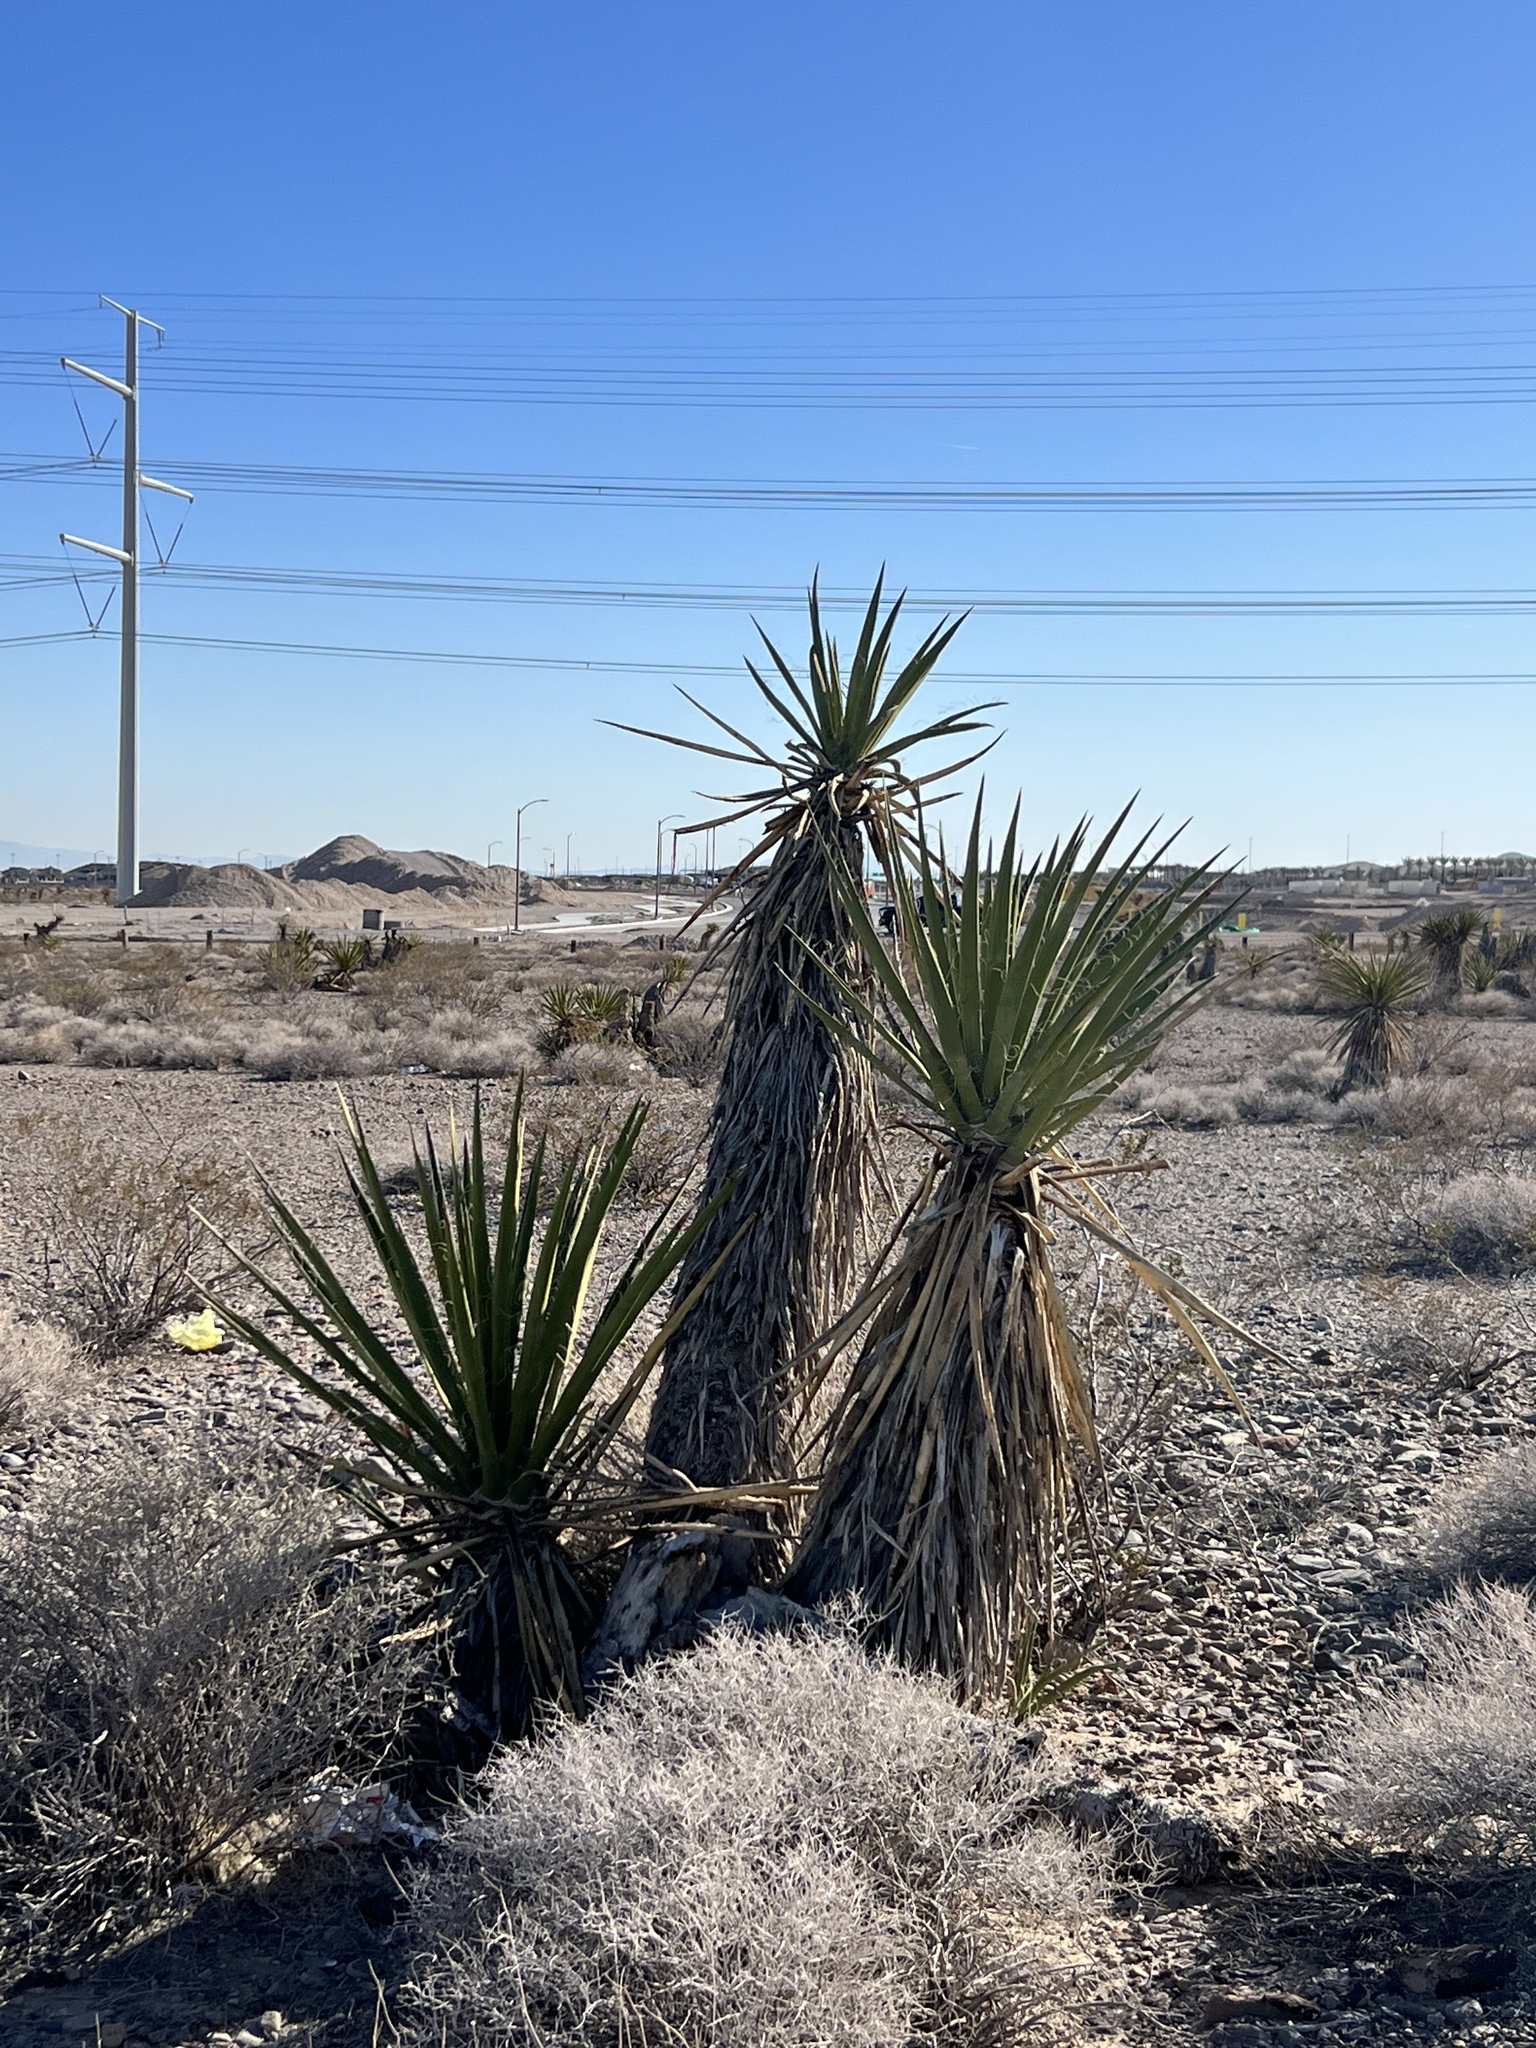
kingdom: Plantae
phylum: Tracheophyta
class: Liliopsida
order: Asparagales
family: Asparagaceae
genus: Yucca
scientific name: Yucca schidigera
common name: Mojave yucca
